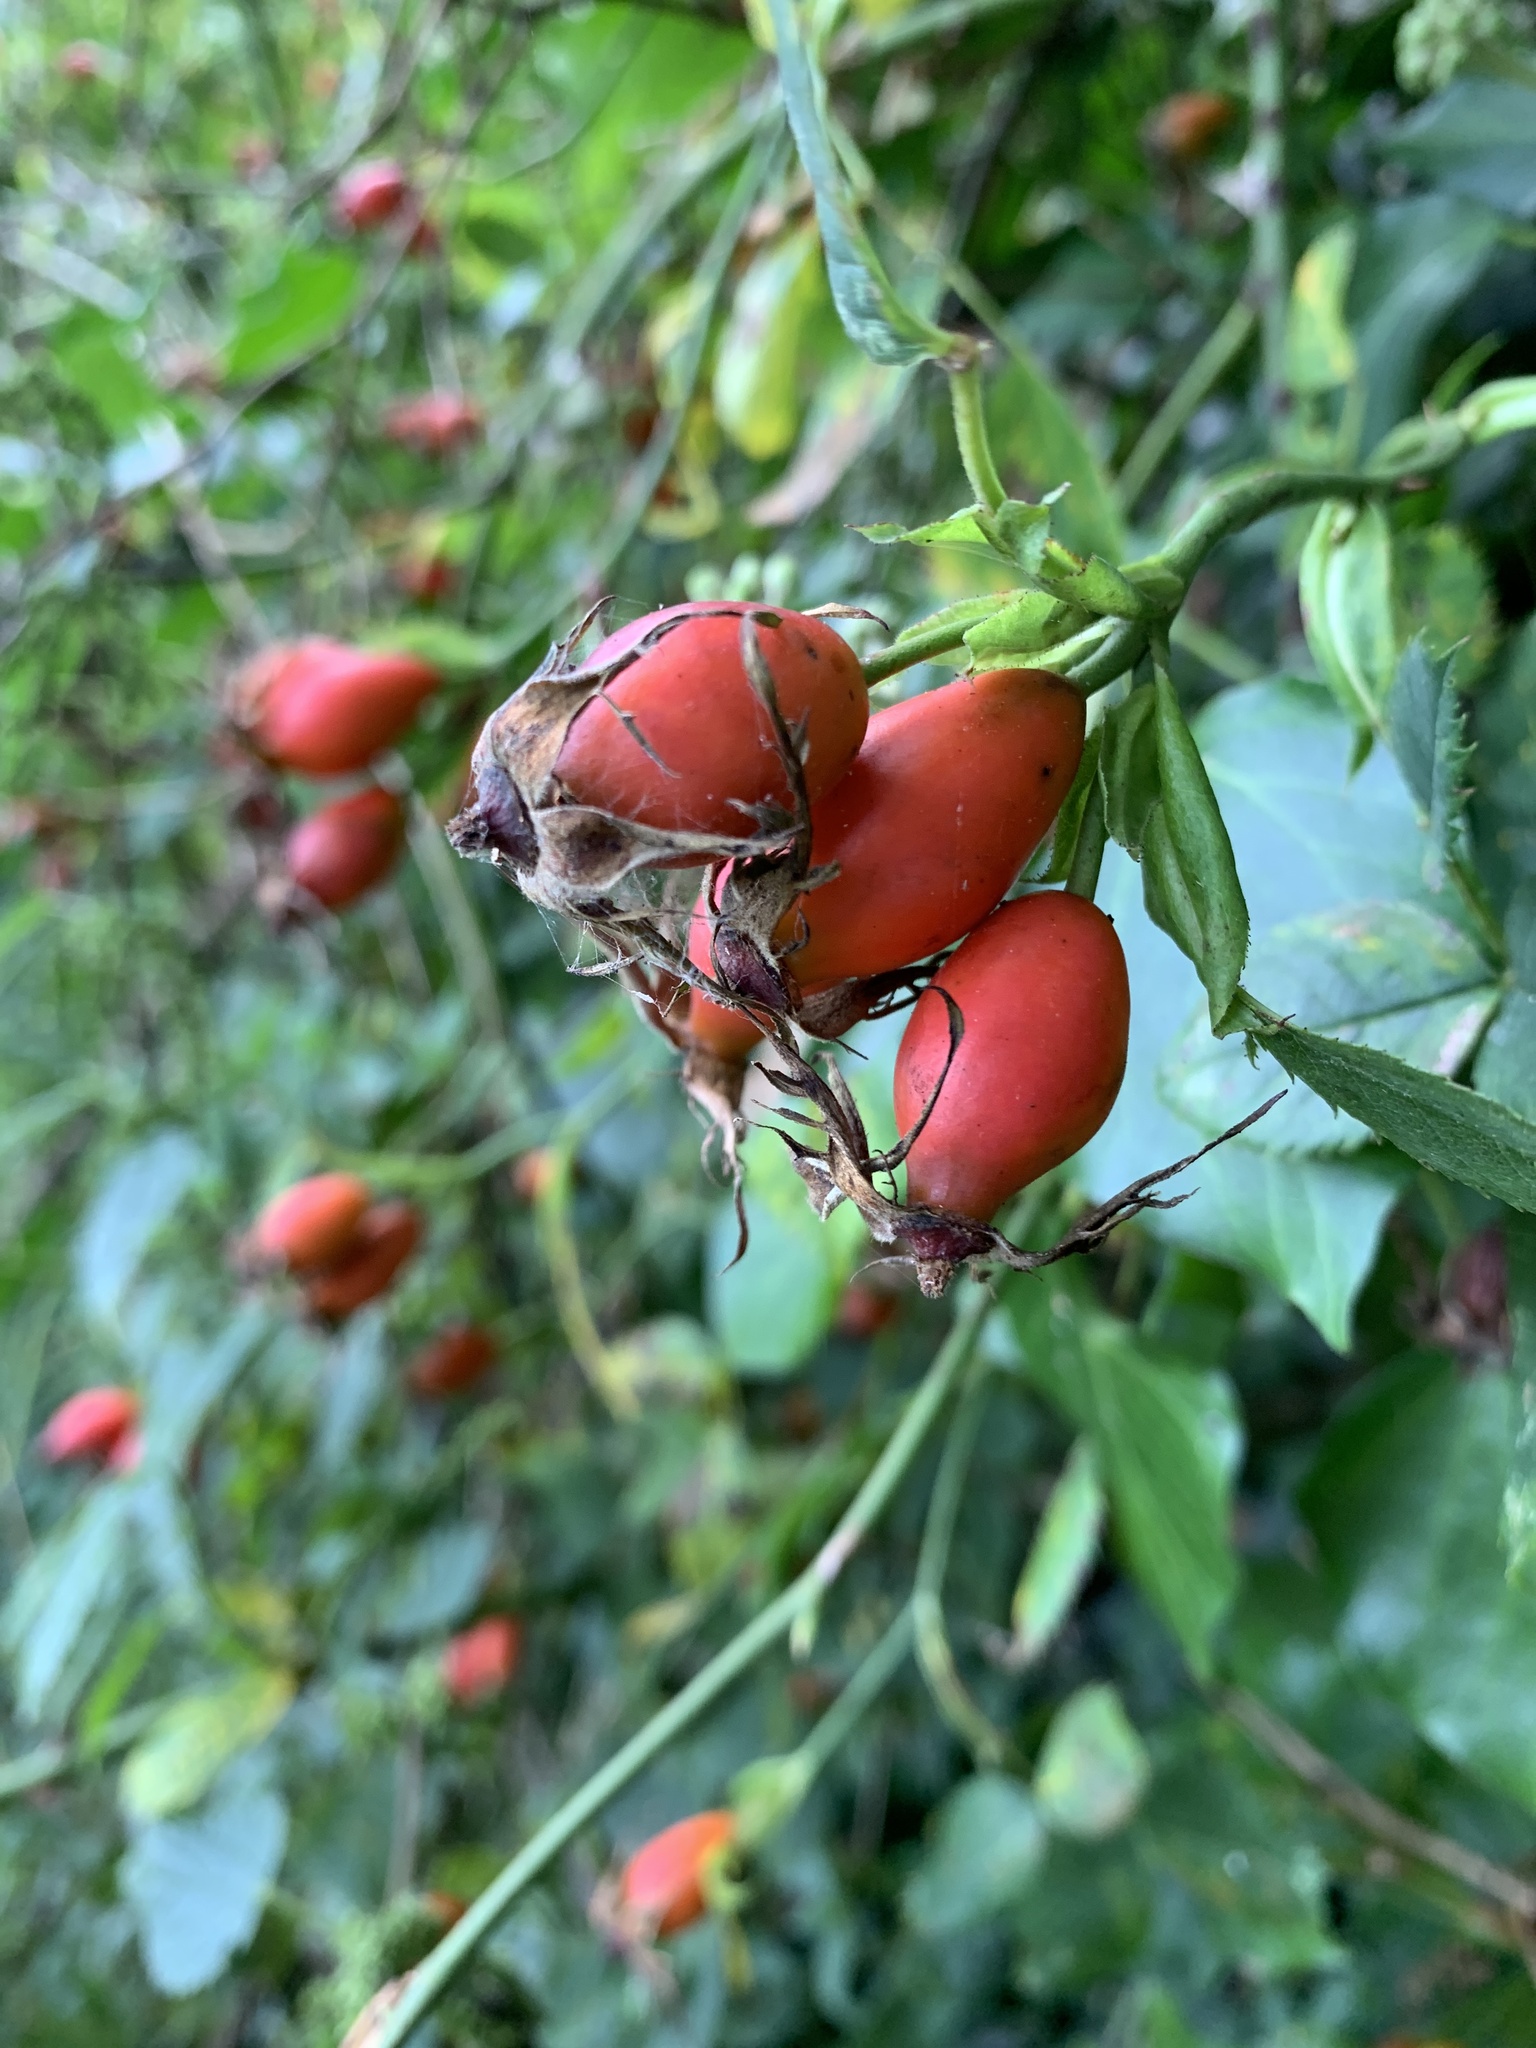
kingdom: Plantae
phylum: Tracheophyta
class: Magnoliopsida
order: Rosales
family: Rosaceae
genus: Rosa
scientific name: Rosa canina
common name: Dog rose
